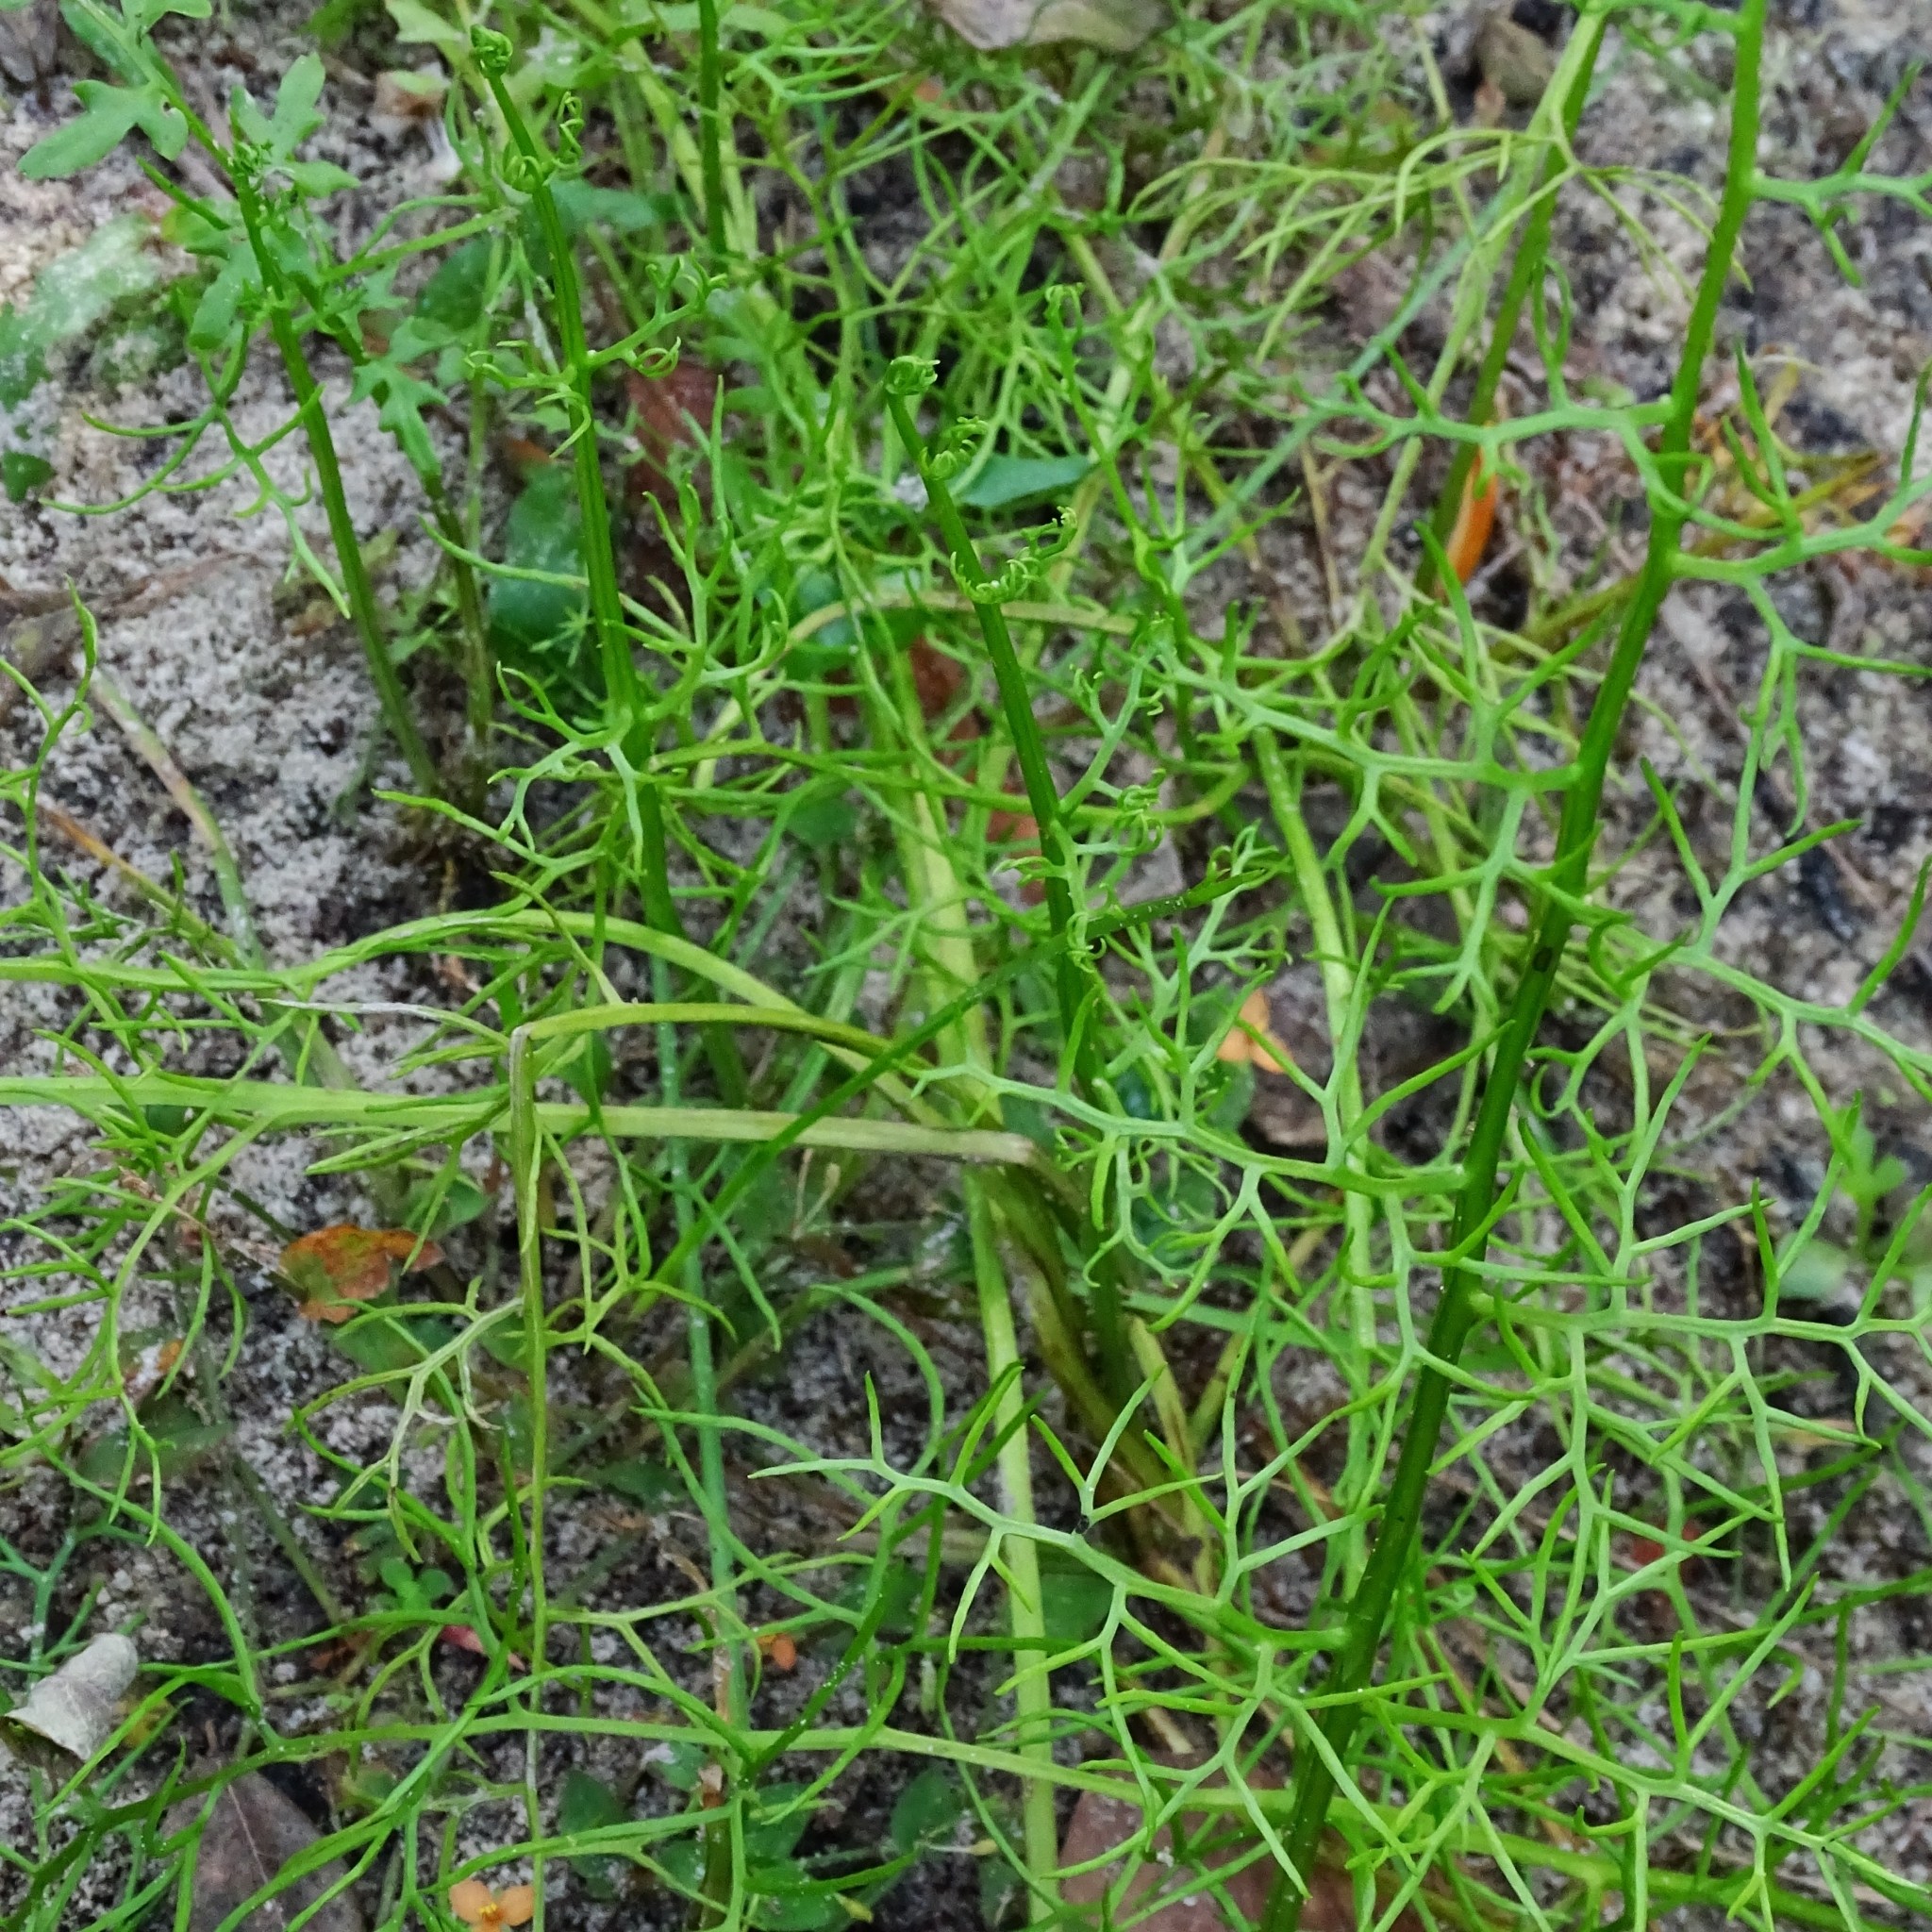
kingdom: Plantae
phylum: Tracheophyta
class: Polypodiopsida
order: Polypodiales
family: Pteridaceae
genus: Ceratopteris
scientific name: Ceratopteris thalictroides
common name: Water fern
